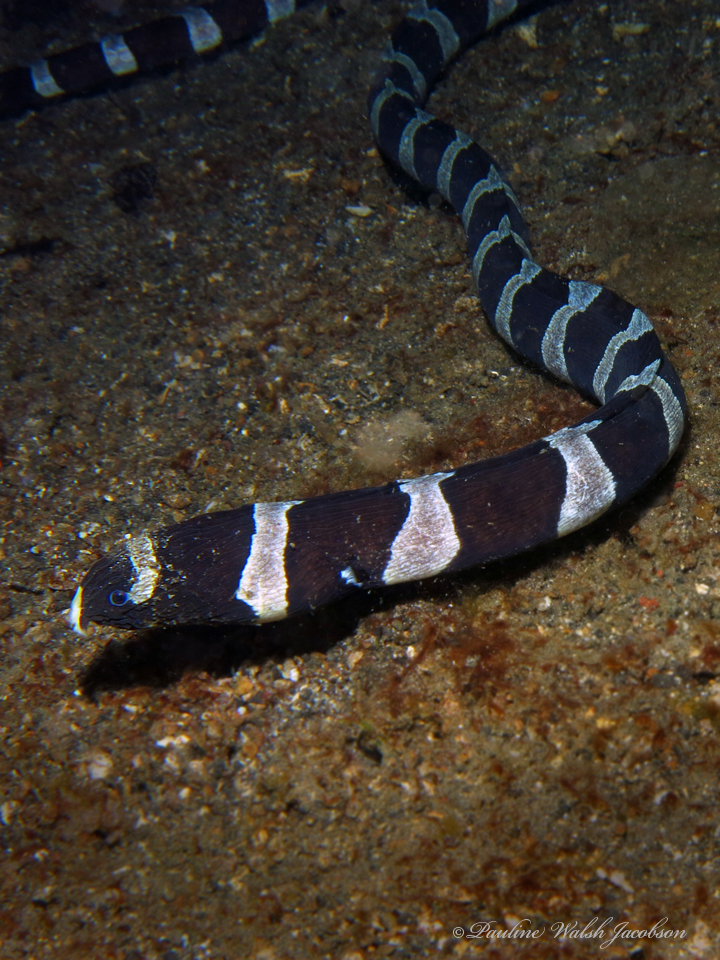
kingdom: Animalia
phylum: Chordata
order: Anguilliformes
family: Ophichthidae
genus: Myrichthys
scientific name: Myrichthys colubrinus
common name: Harlequin snake eel
